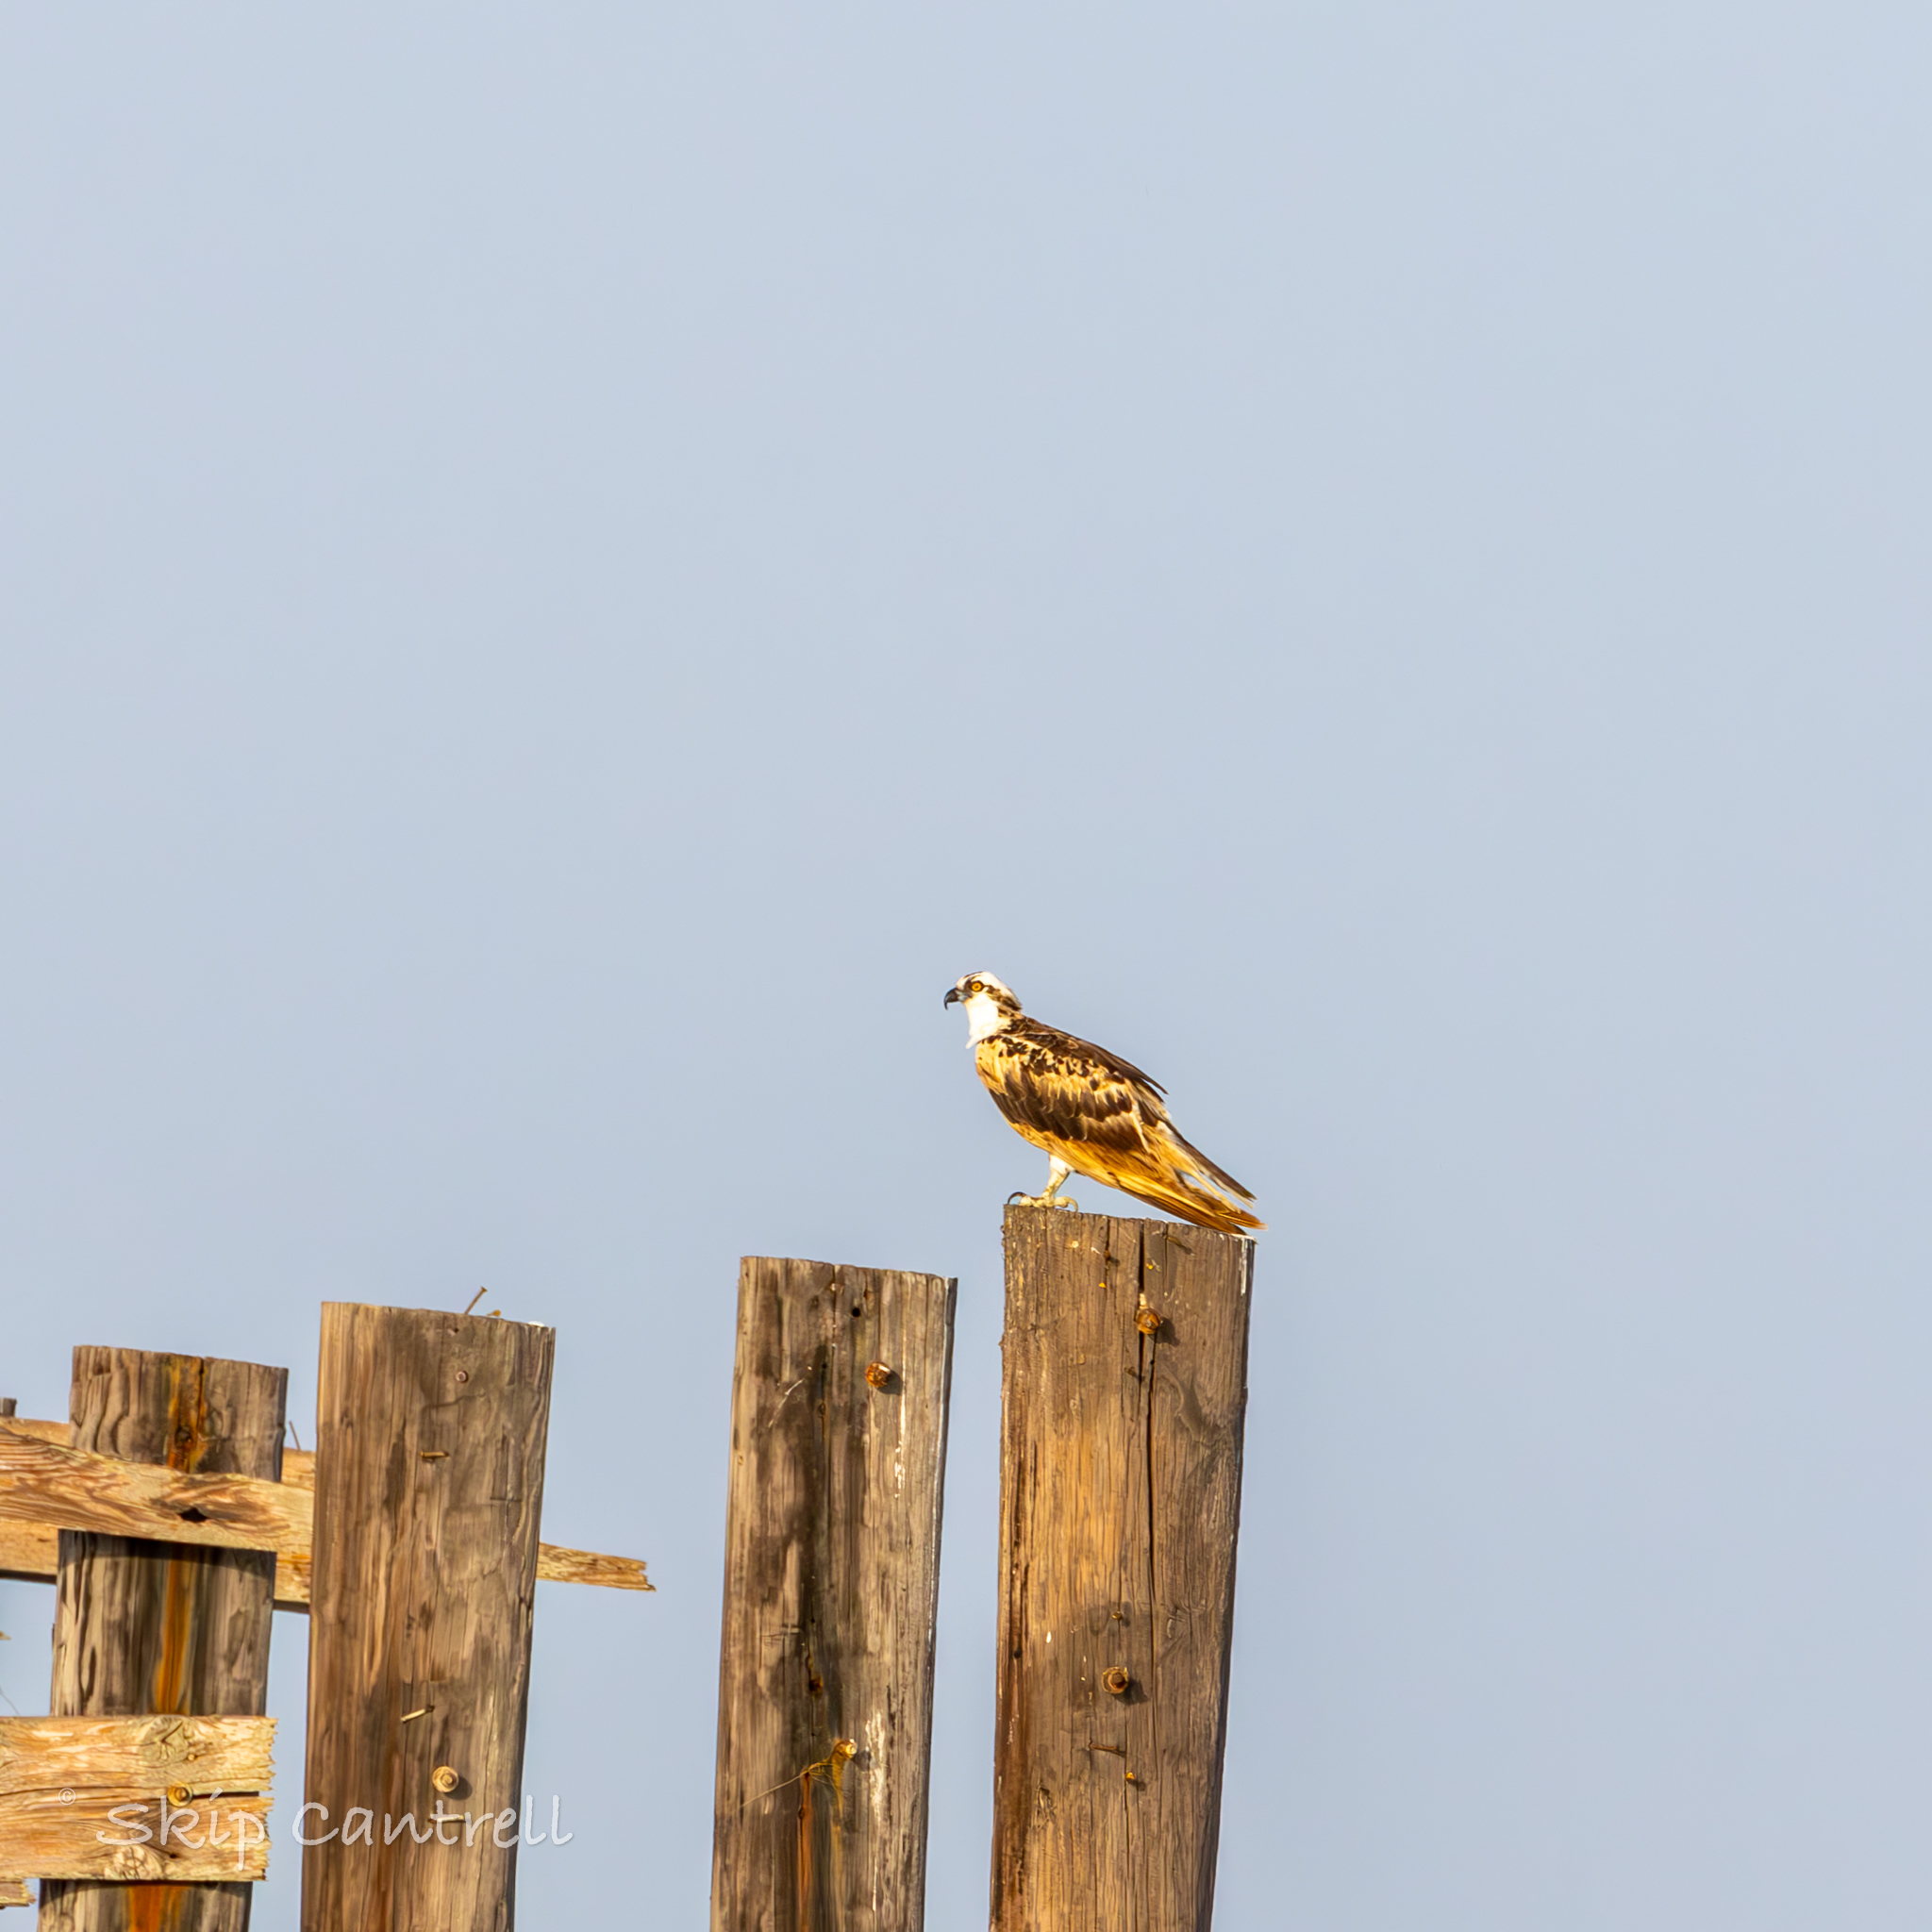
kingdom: Animalia
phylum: Chordata
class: Aves
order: Accipitriformes
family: Pandionidae
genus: Pandion
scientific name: Pandion haliaetus
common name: Osprey
